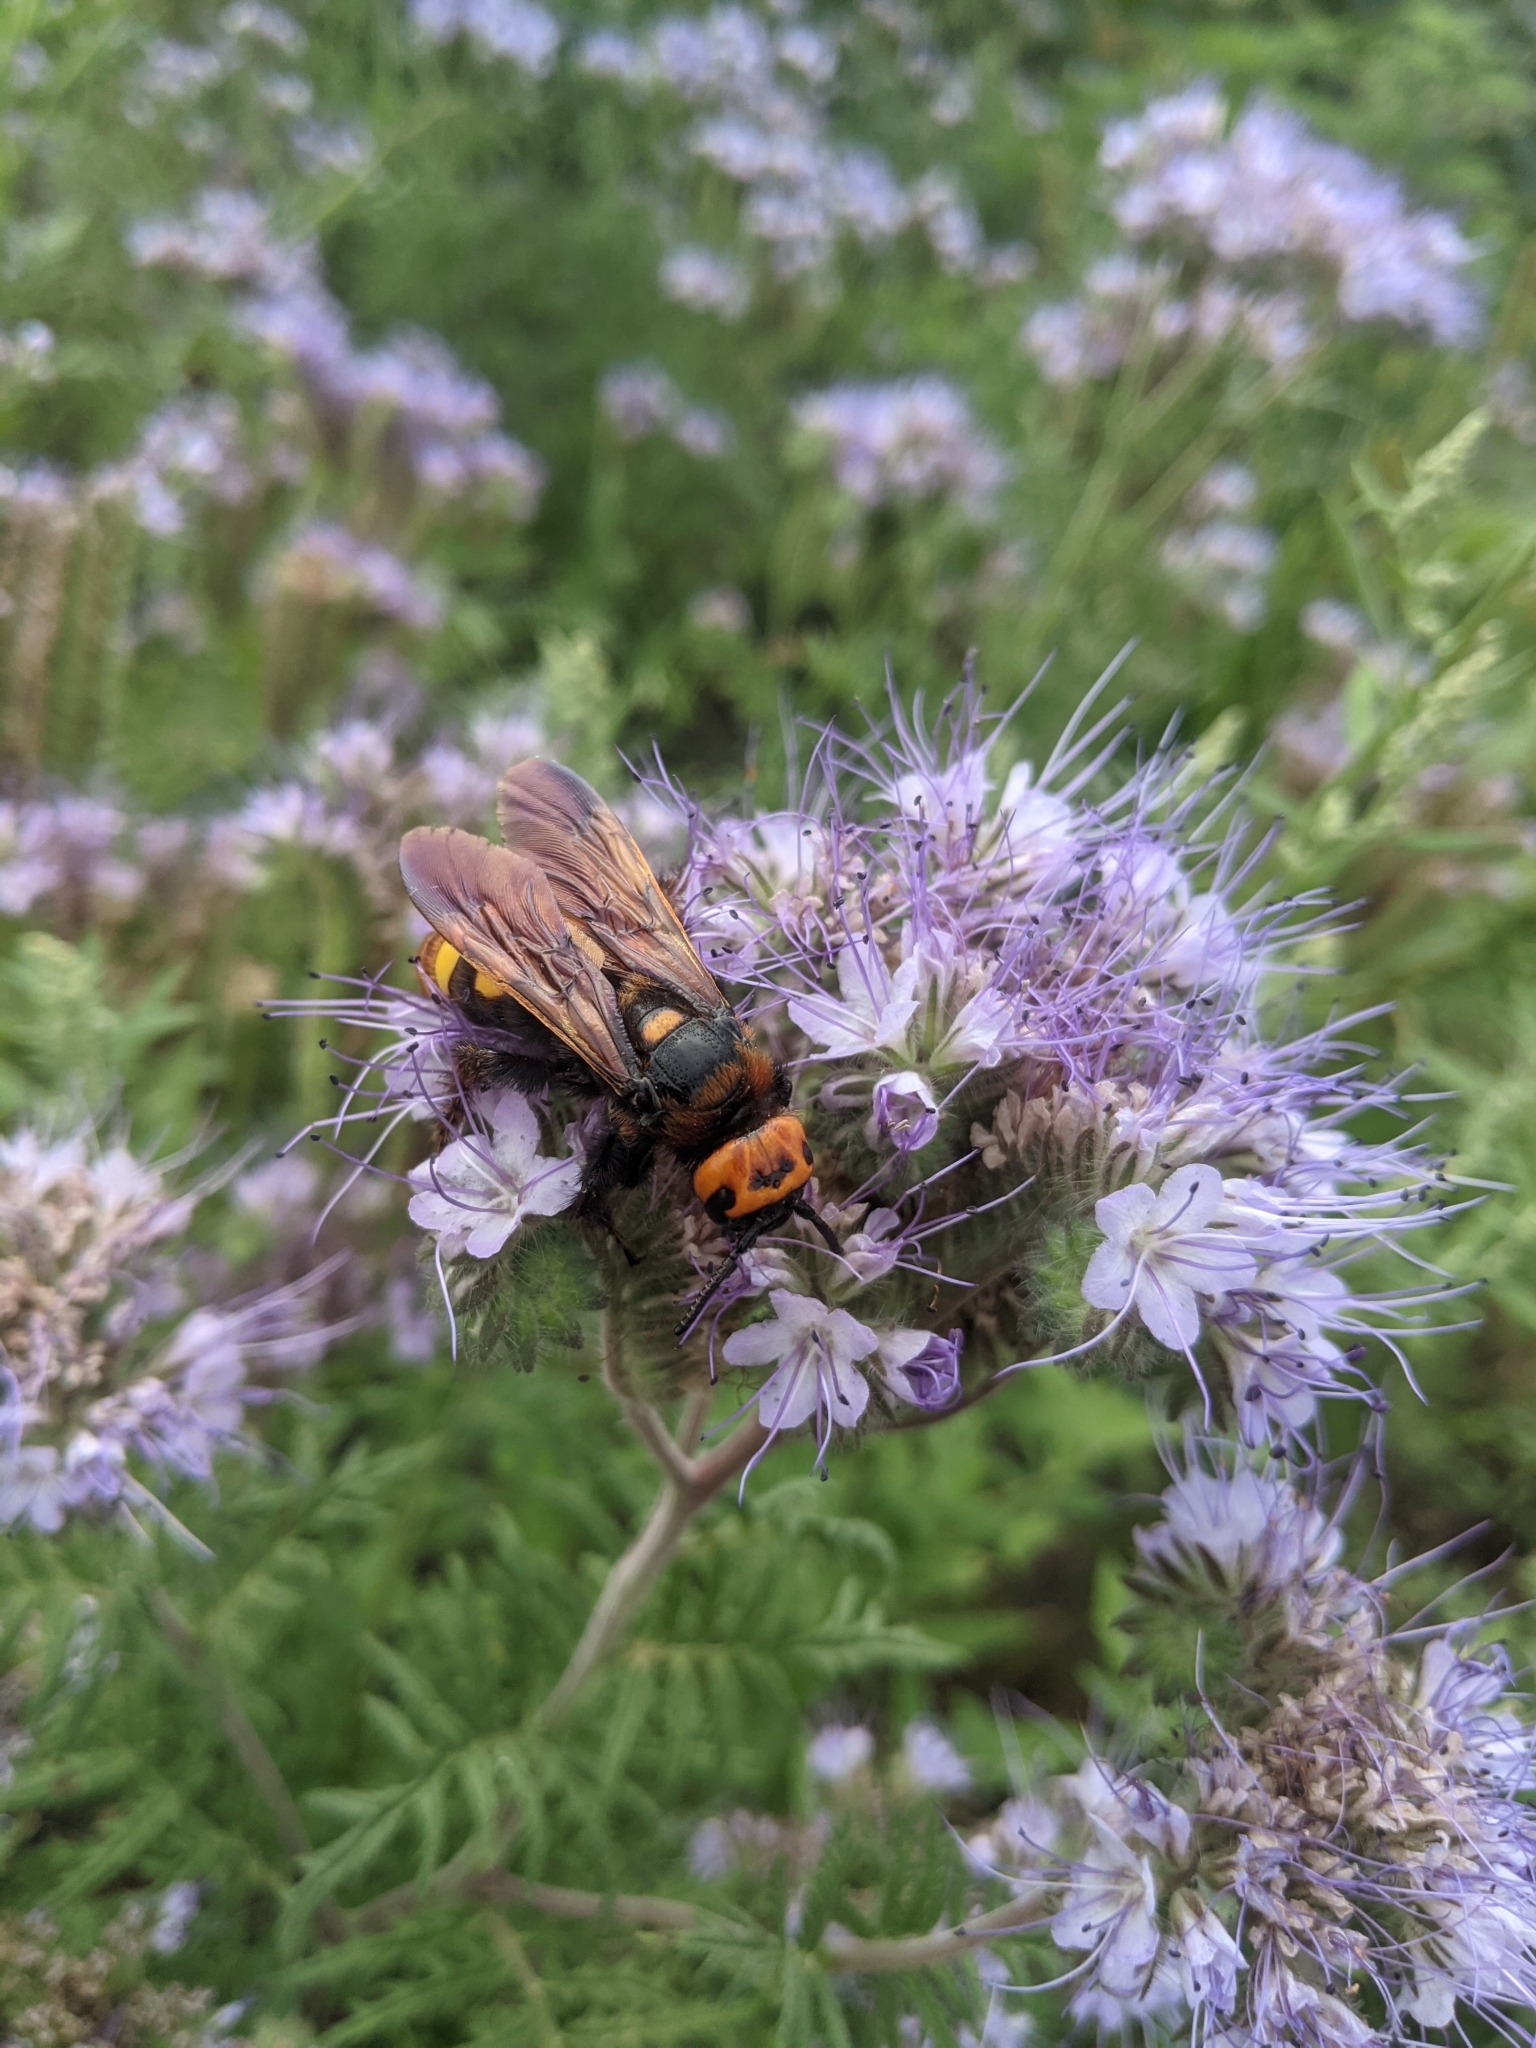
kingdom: Animalia
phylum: Arthropoda
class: Insecta
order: Hymenoptera
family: Scoliidae
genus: Megascolia
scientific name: Megascolia maculata
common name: Mammoth wasp
